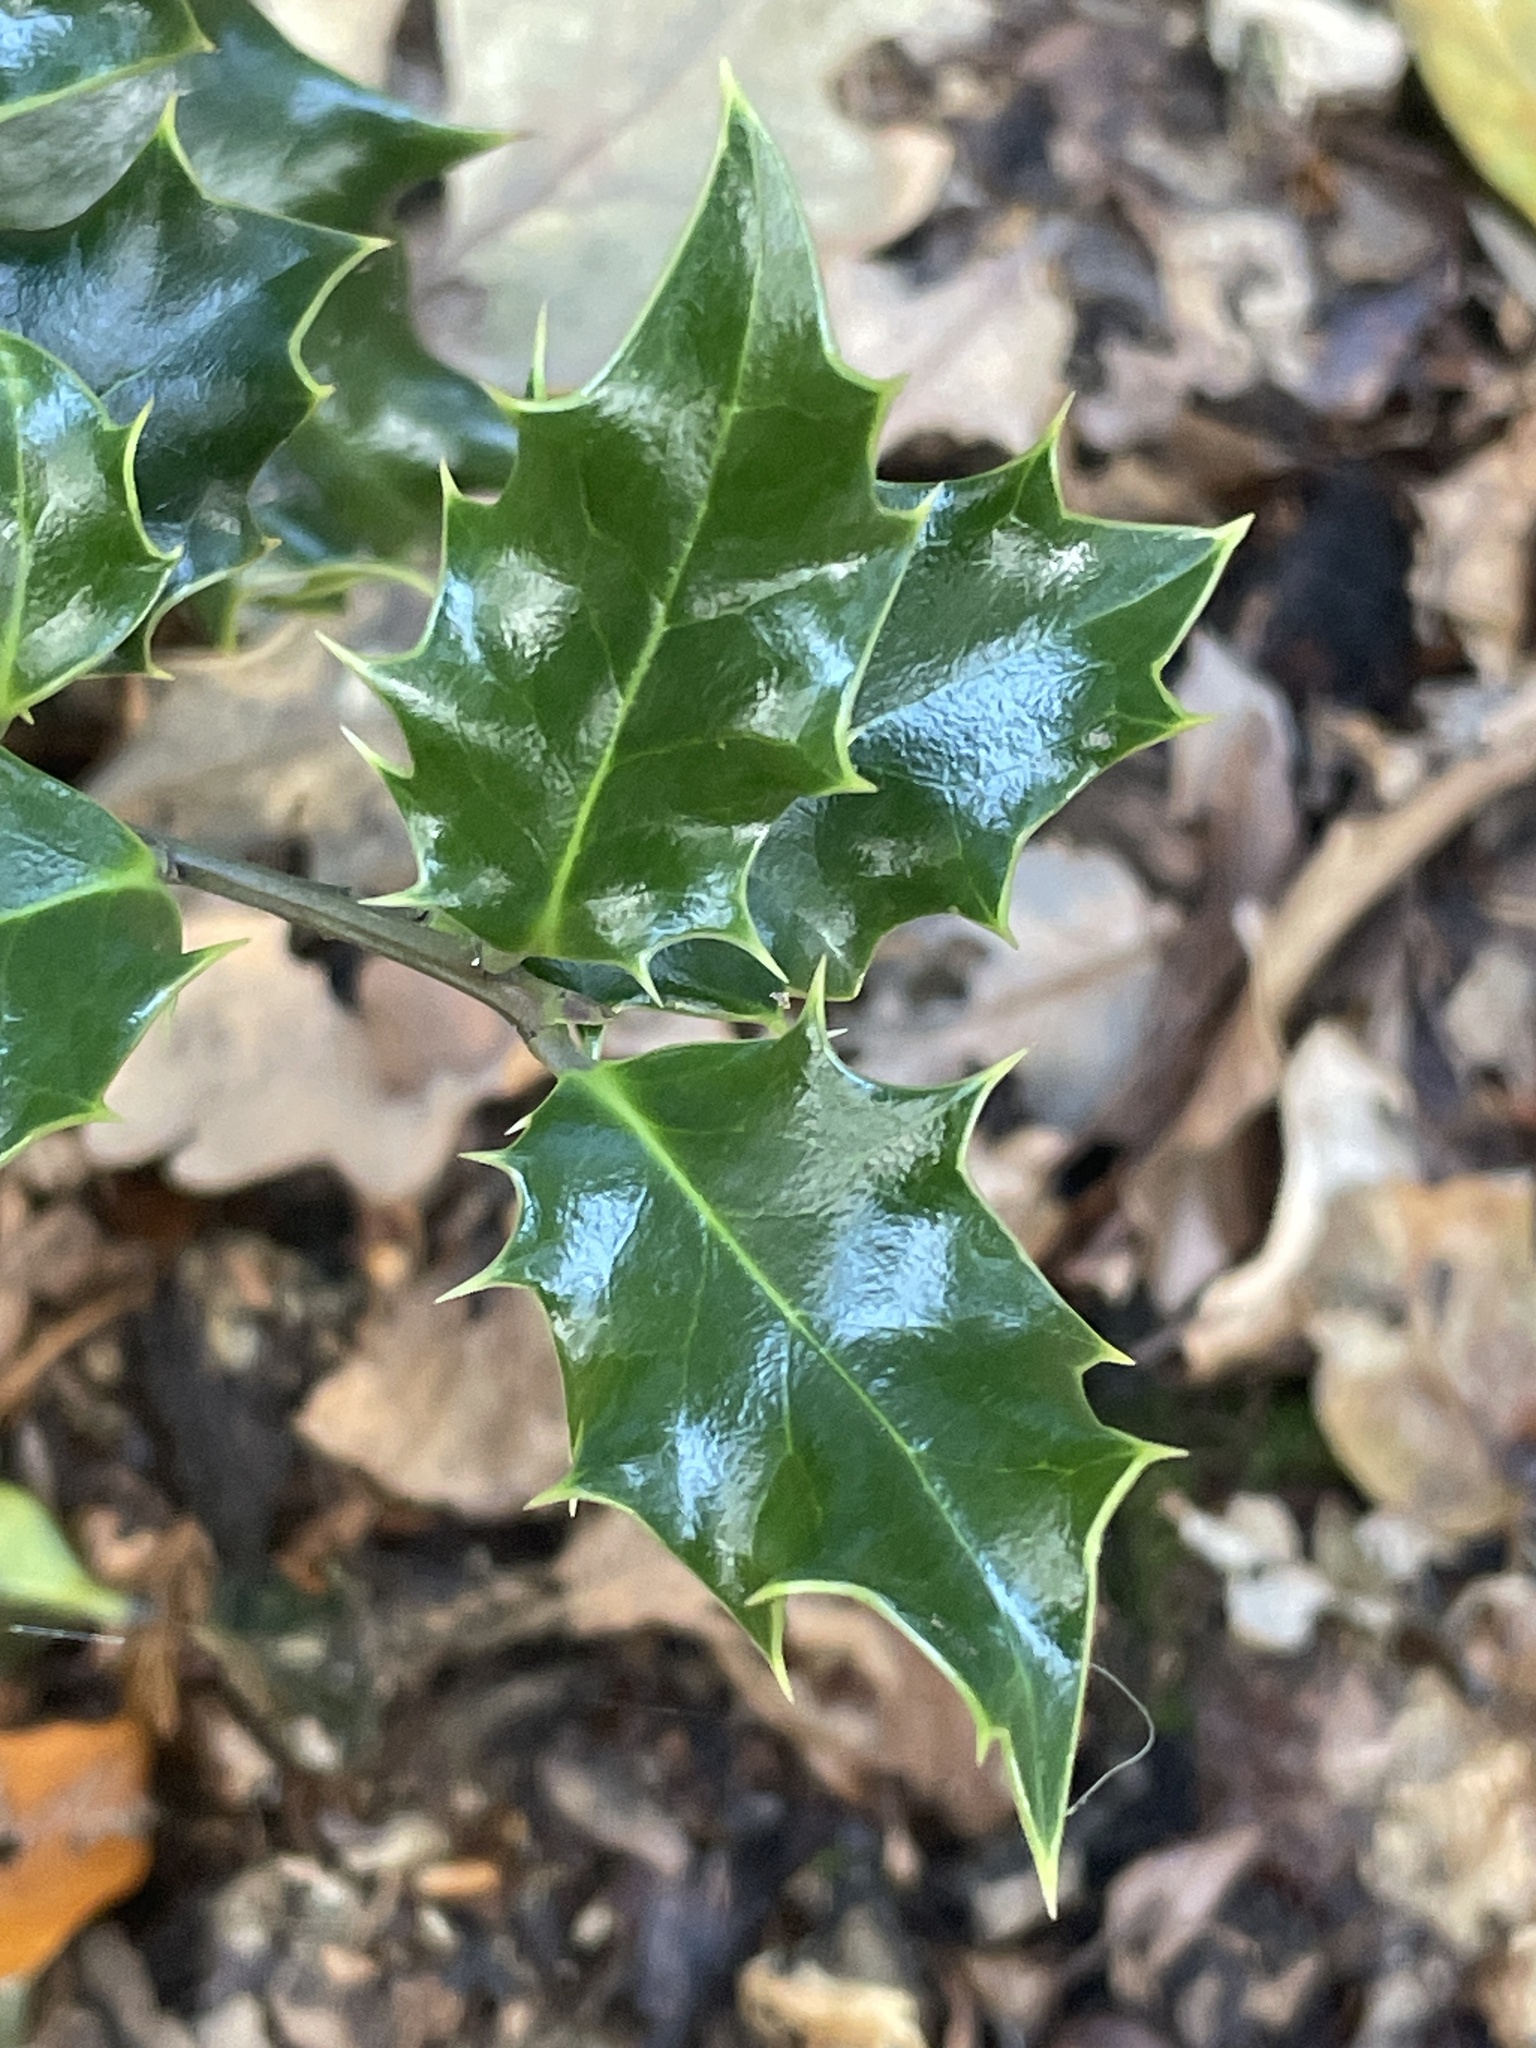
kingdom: Plantae
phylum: Tracheophyta
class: Magnoliopsida
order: Aquifoliales
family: Aquifoliaceae
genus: Ilex
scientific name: Ilex aquifolium
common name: English holly
